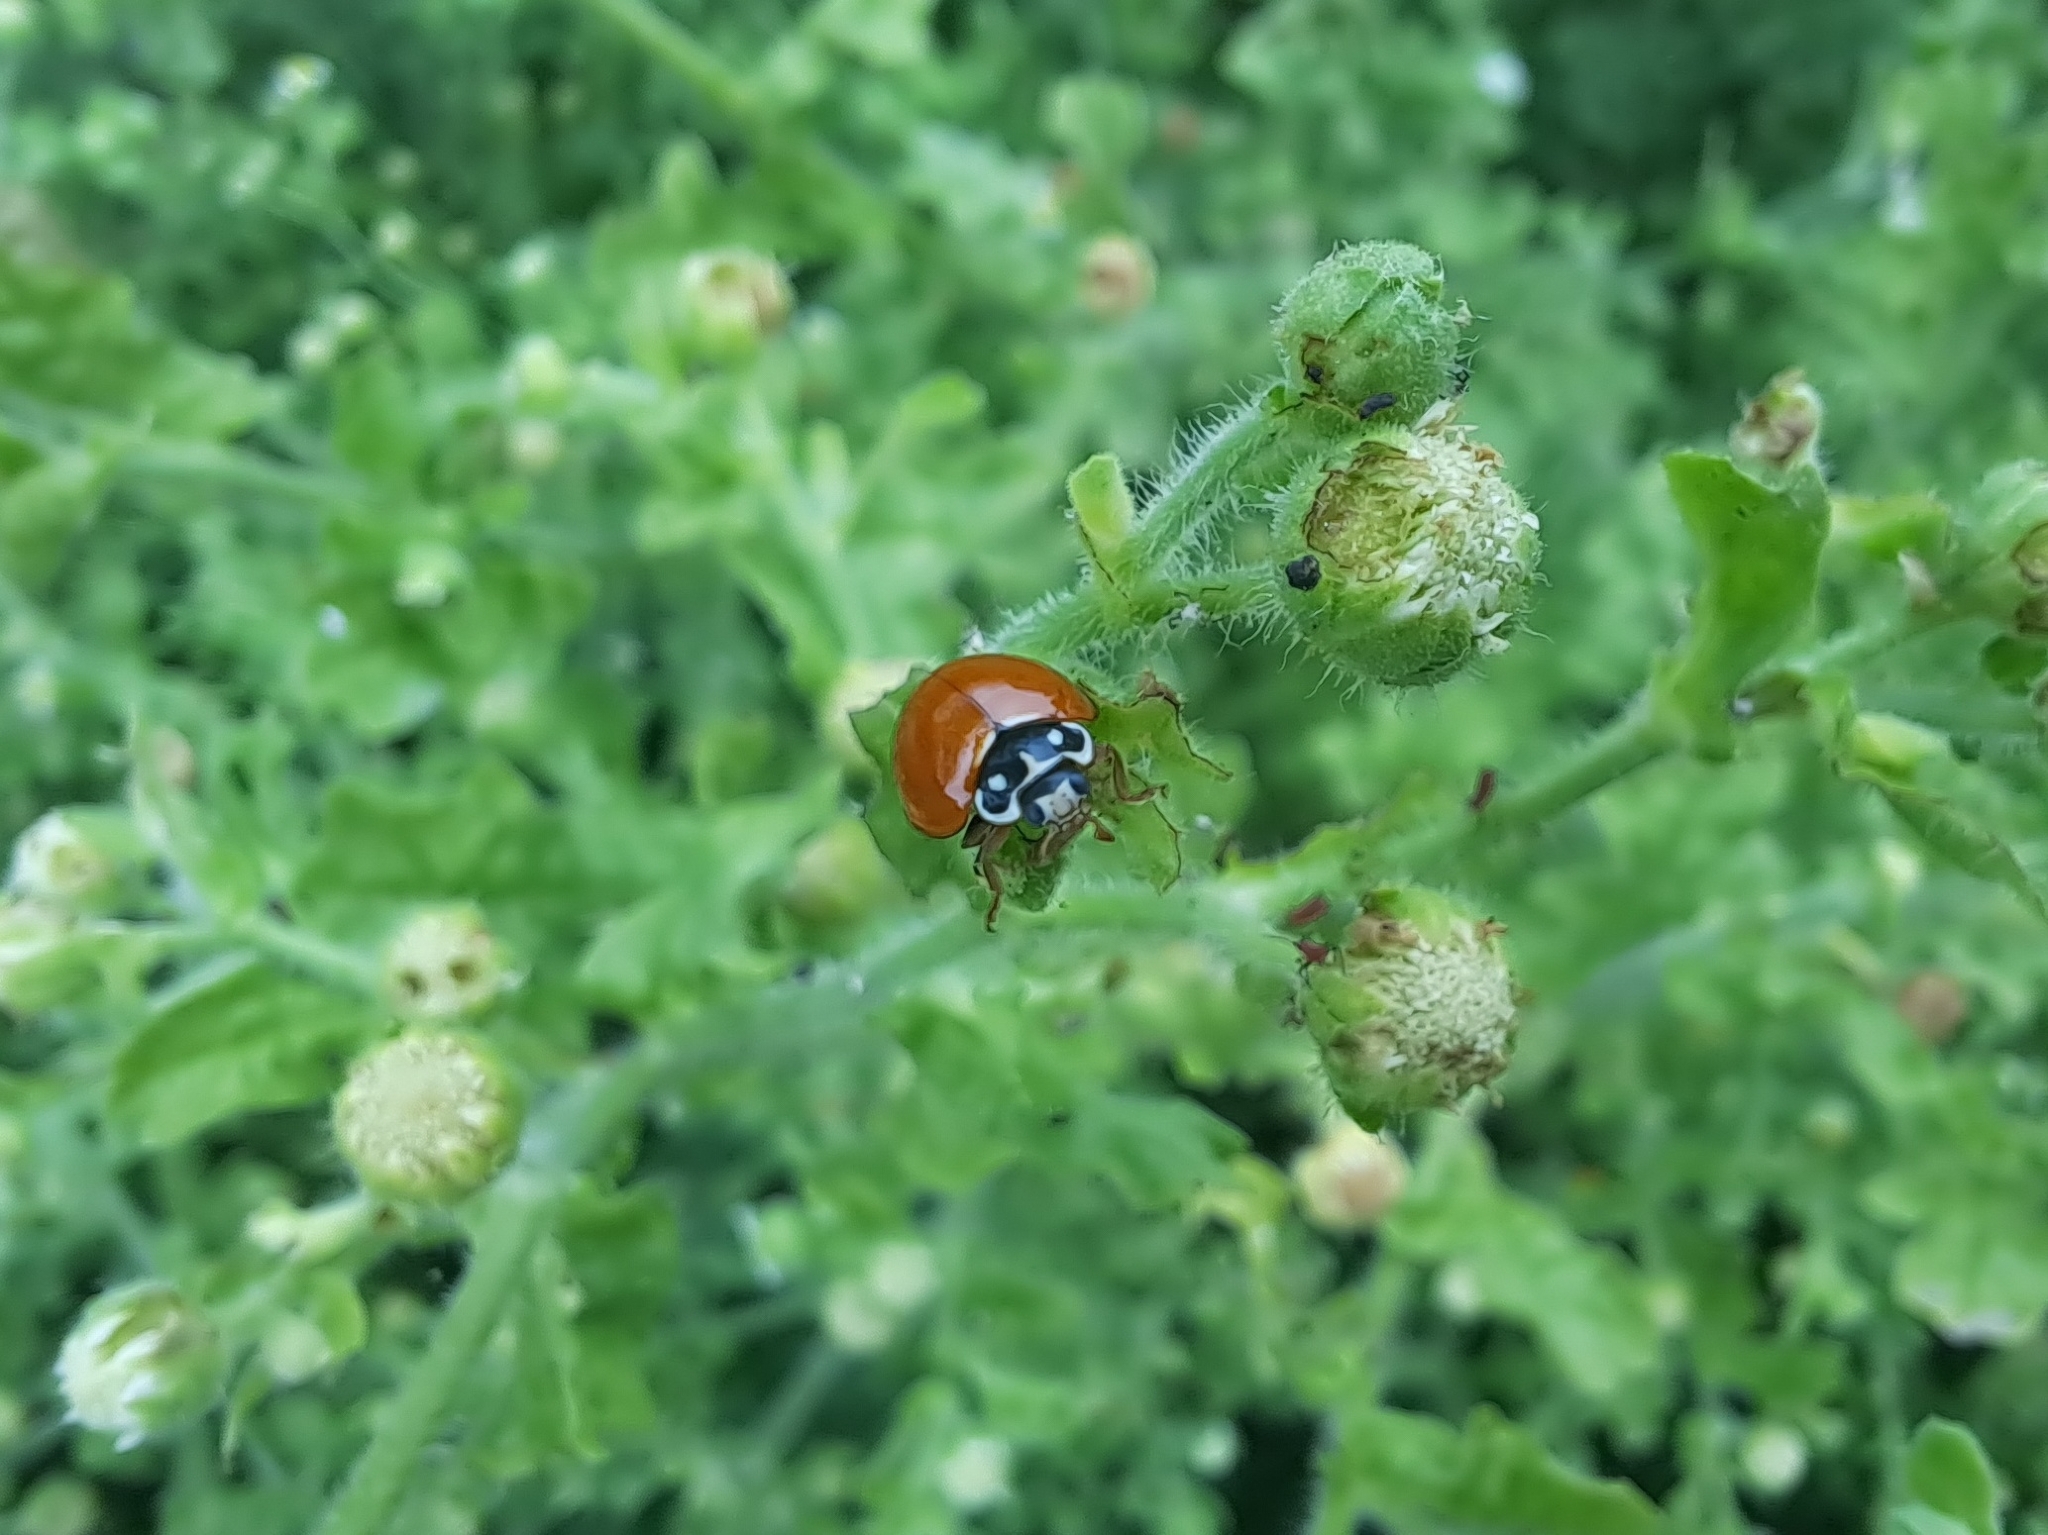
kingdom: Animalia
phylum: Arthropoda
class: Insecta
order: Coleoptera
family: Coccinellidae
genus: Cycloneda
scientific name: Cycloneda sanguinea
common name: Ladybird beetle
